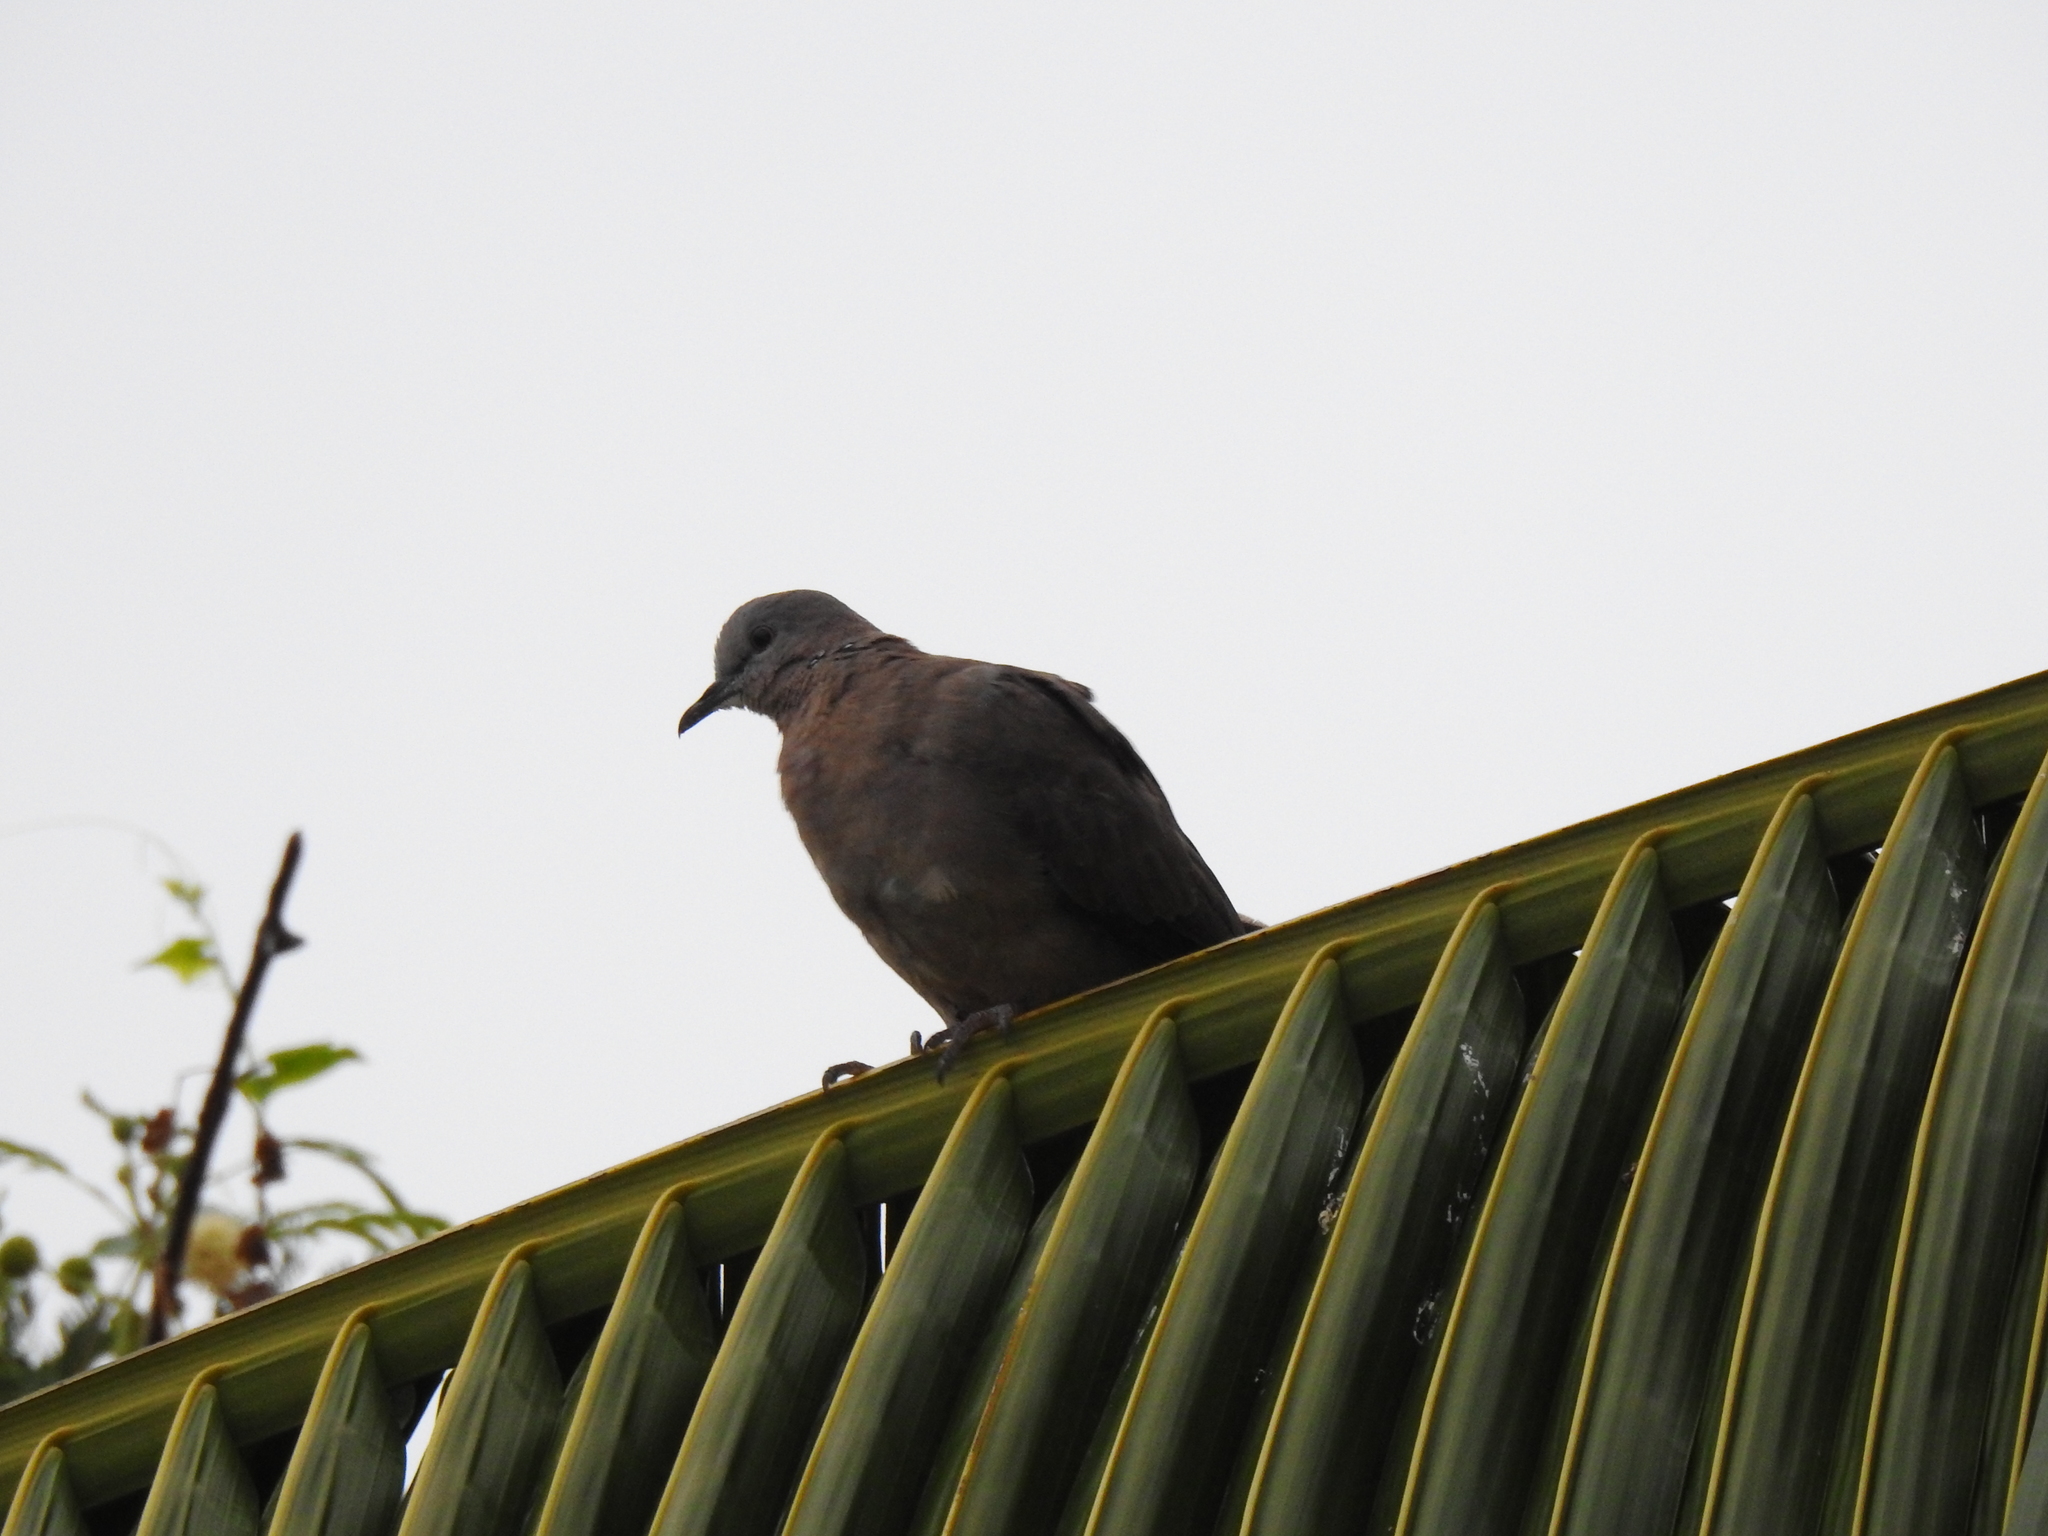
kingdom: Animalia
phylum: Chordata
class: Aves
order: Columbiformes
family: Columbidae
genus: Spilopelia
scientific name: Spilopelia chinensis
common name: Spotted dove
